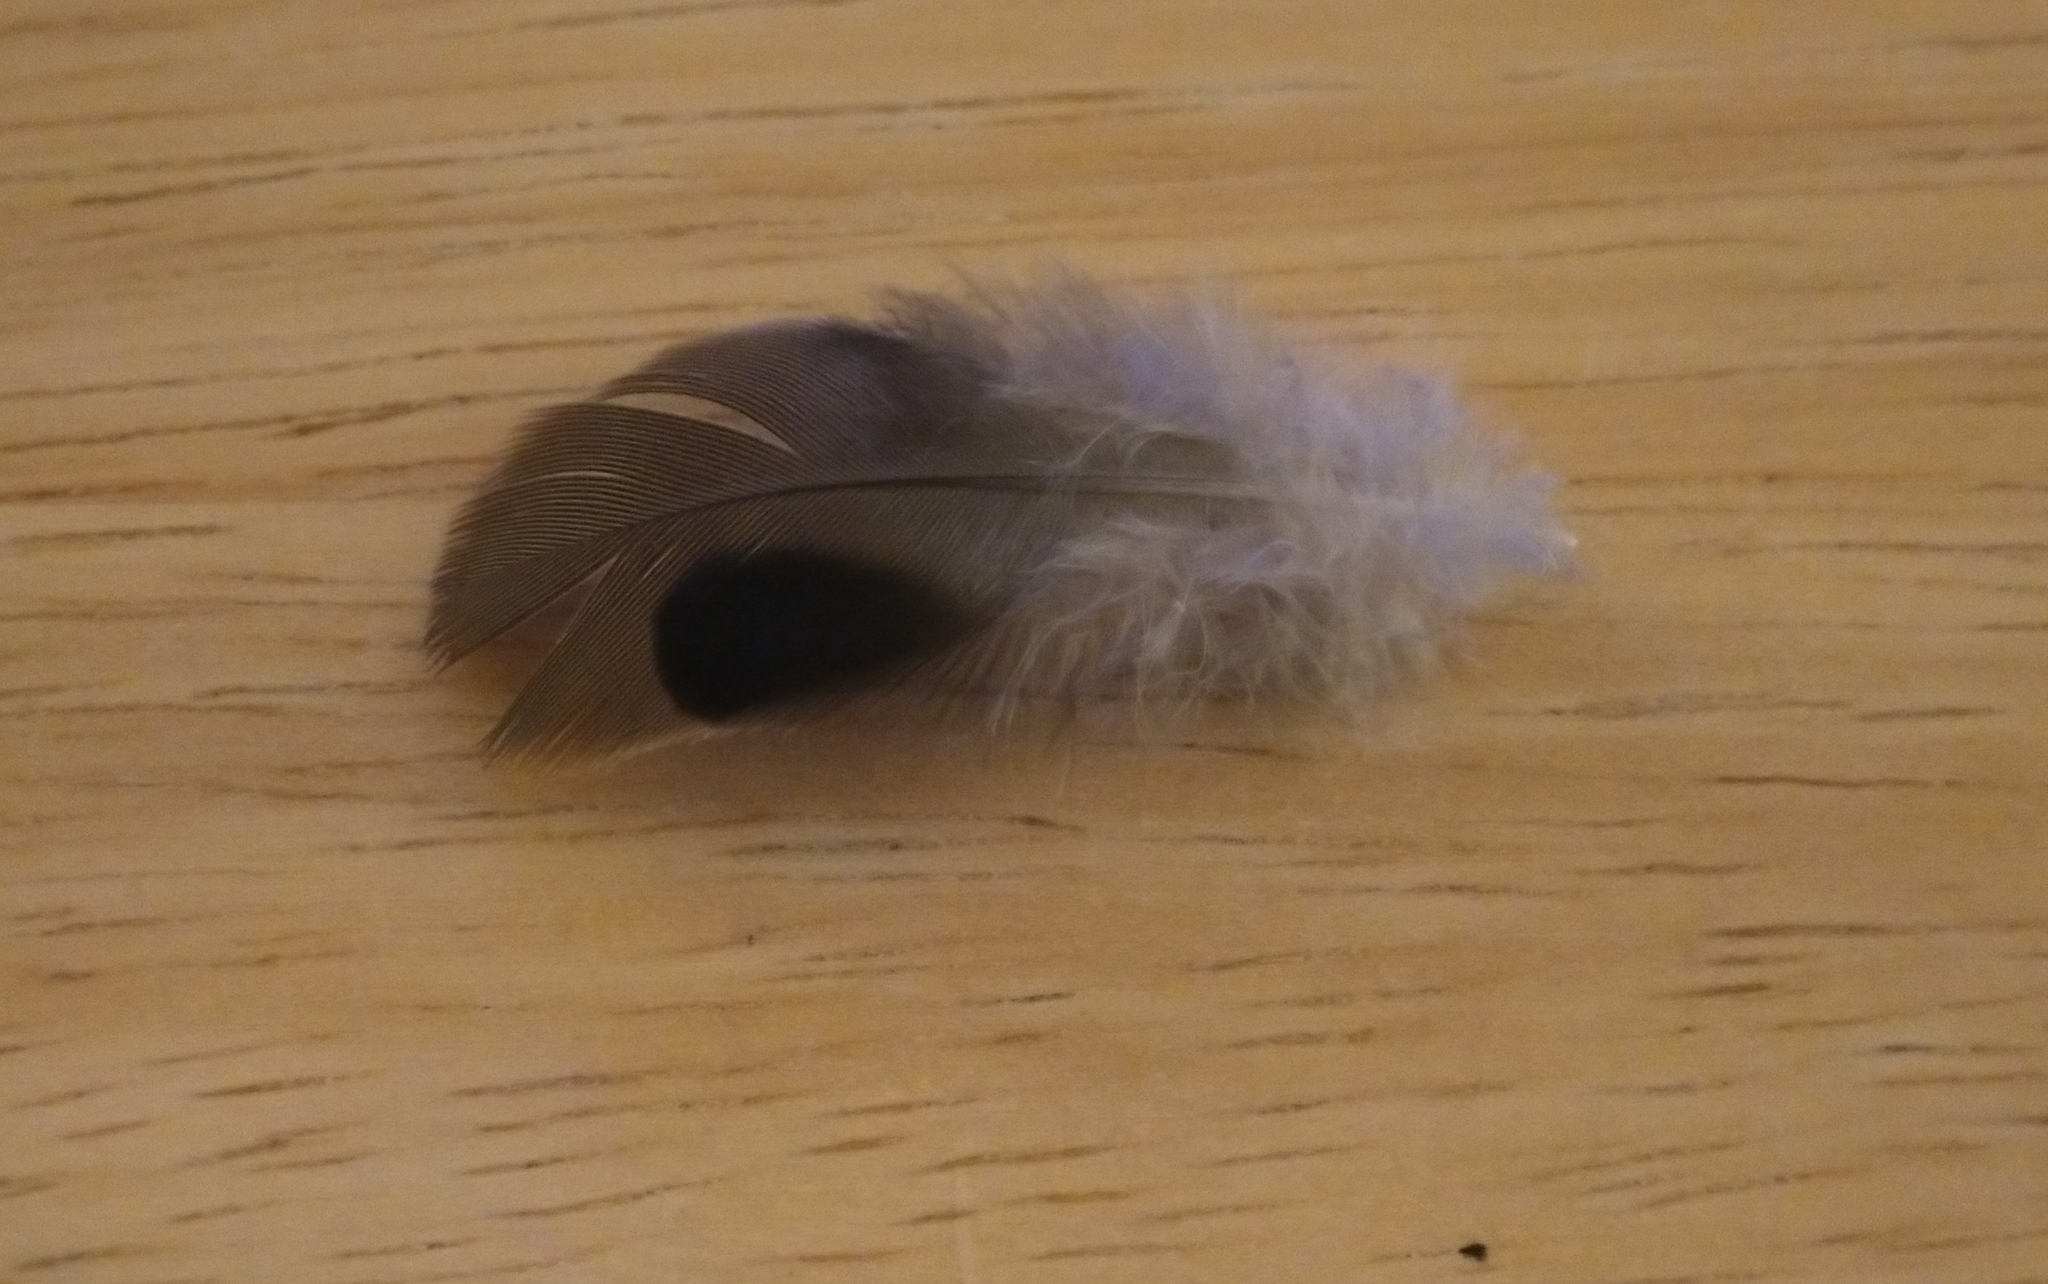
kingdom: Animalia
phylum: Chordata
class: Aves
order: Columbiformes
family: Columbidae
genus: Zenaida
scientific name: Zenaida macroura
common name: Mourning dove
